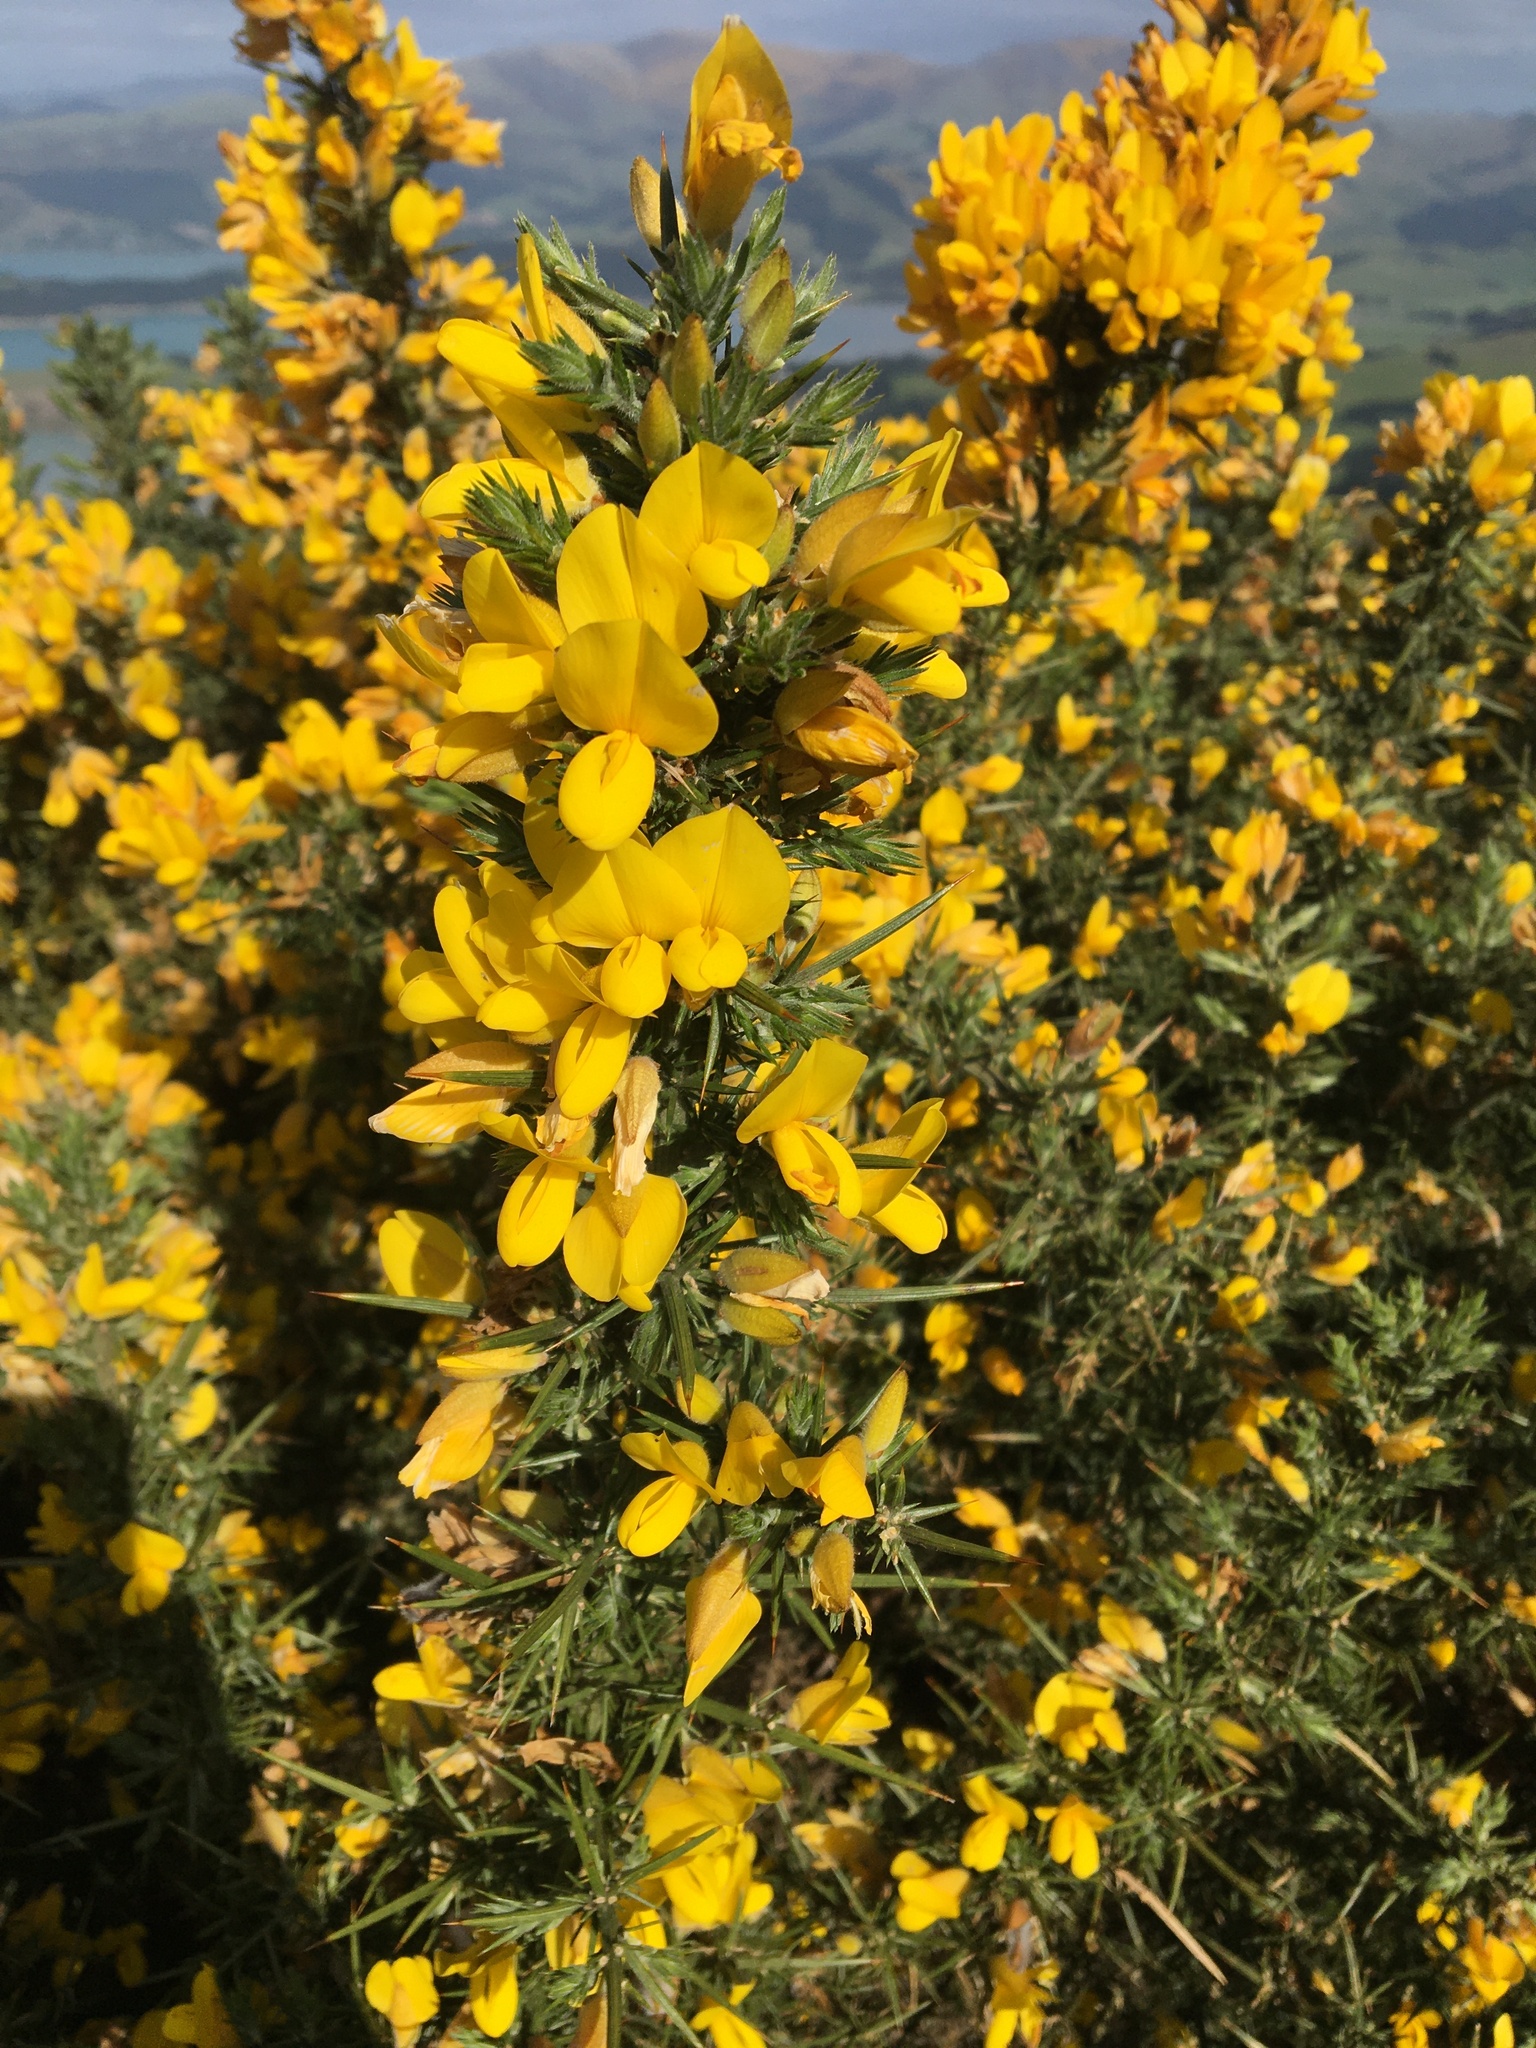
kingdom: Plantae
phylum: Tracheophyta
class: Magnoliopsida
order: Fabales
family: Fabaceae
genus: Ulex
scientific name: Ulex europaeus
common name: Common gorse
